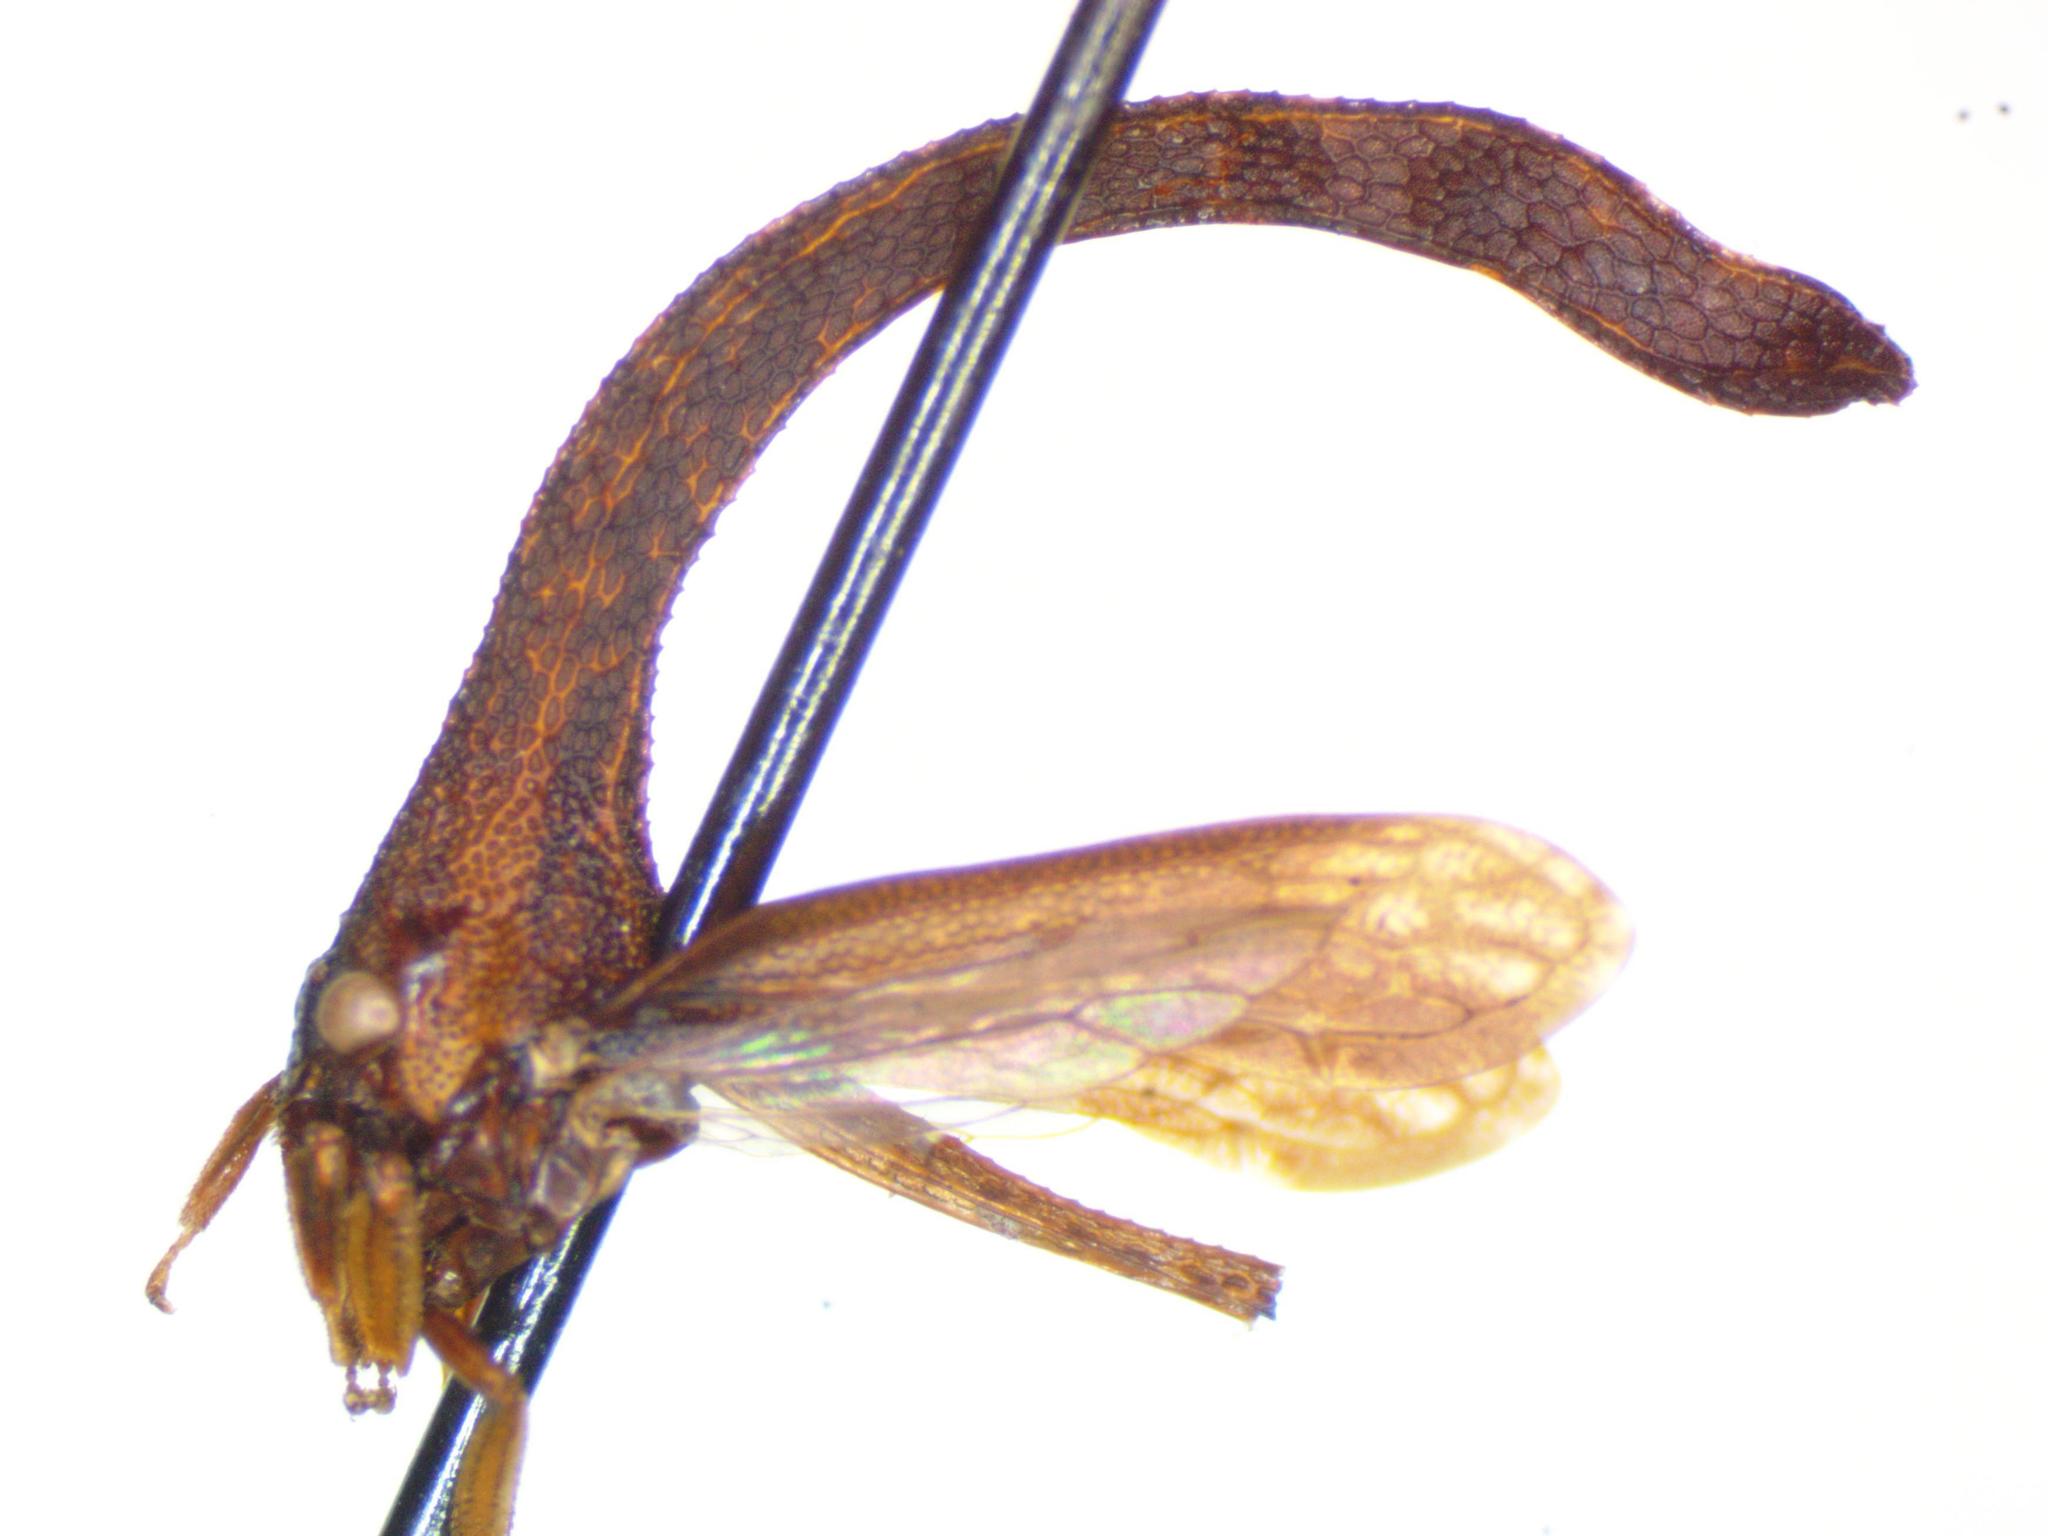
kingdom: Animalia
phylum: Arthropoda
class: Insecta
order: Hemiptera
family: Membracidae
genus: Cladonota
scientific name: Cladonota apicalis
